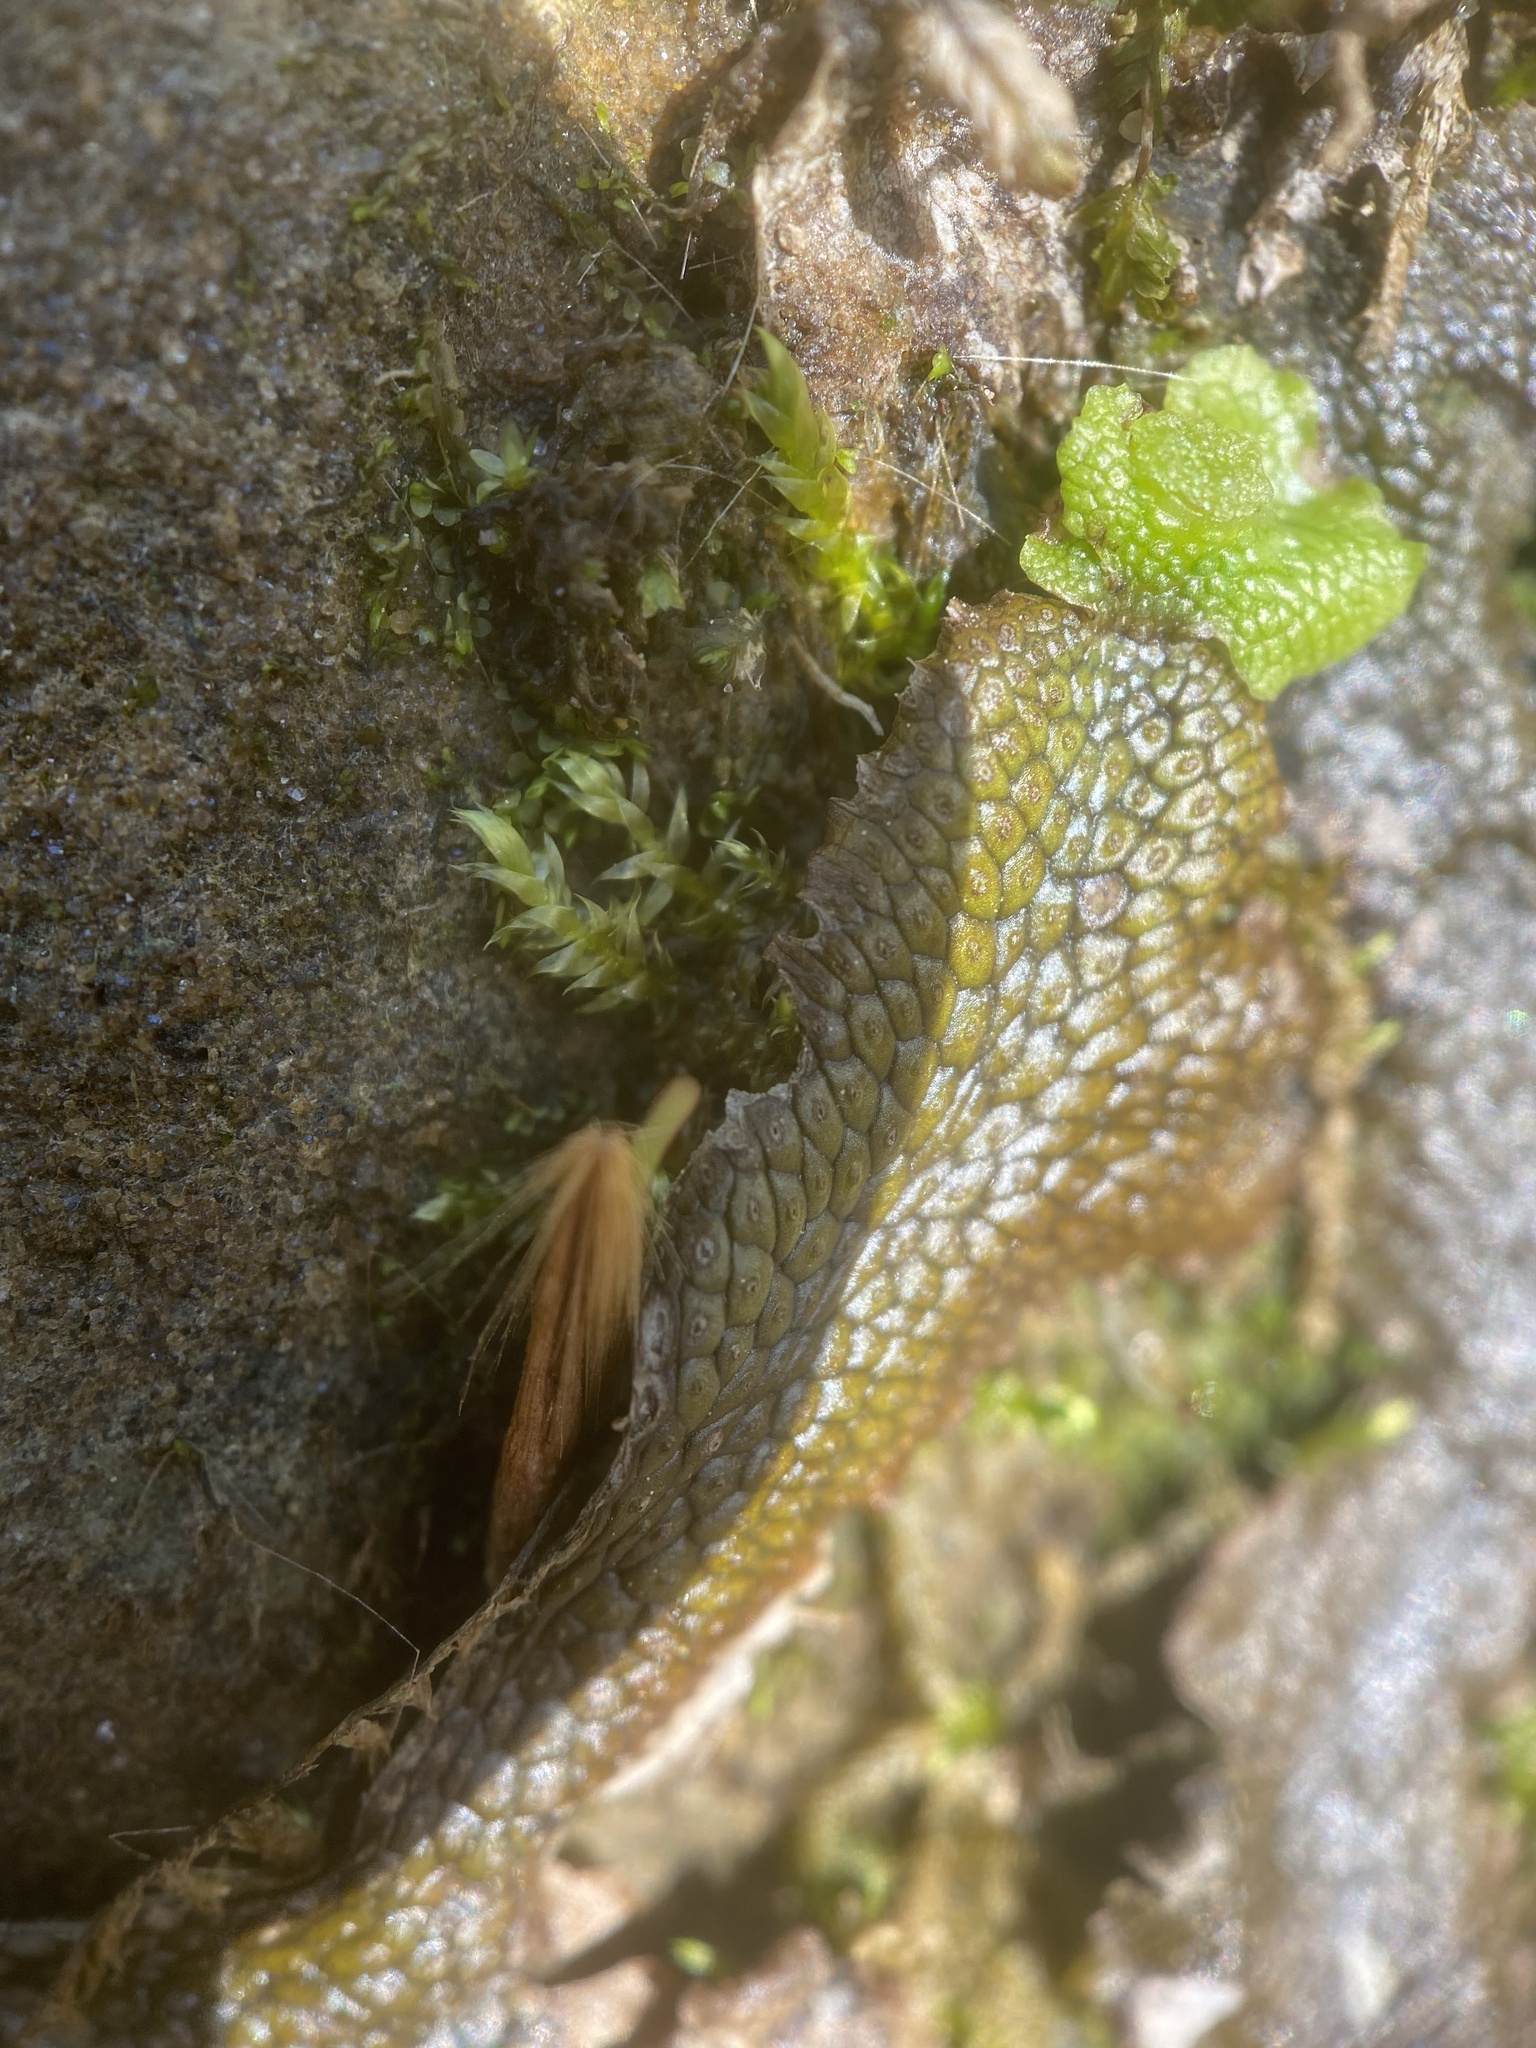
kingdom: Plantae
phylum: Marchantiophyta
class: Marchantiopsida
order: Marchantiales
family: Conocephalaceae
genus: Conocephalum
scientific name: Conocephalum salebrosum
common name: Cat-tongue liverwort
